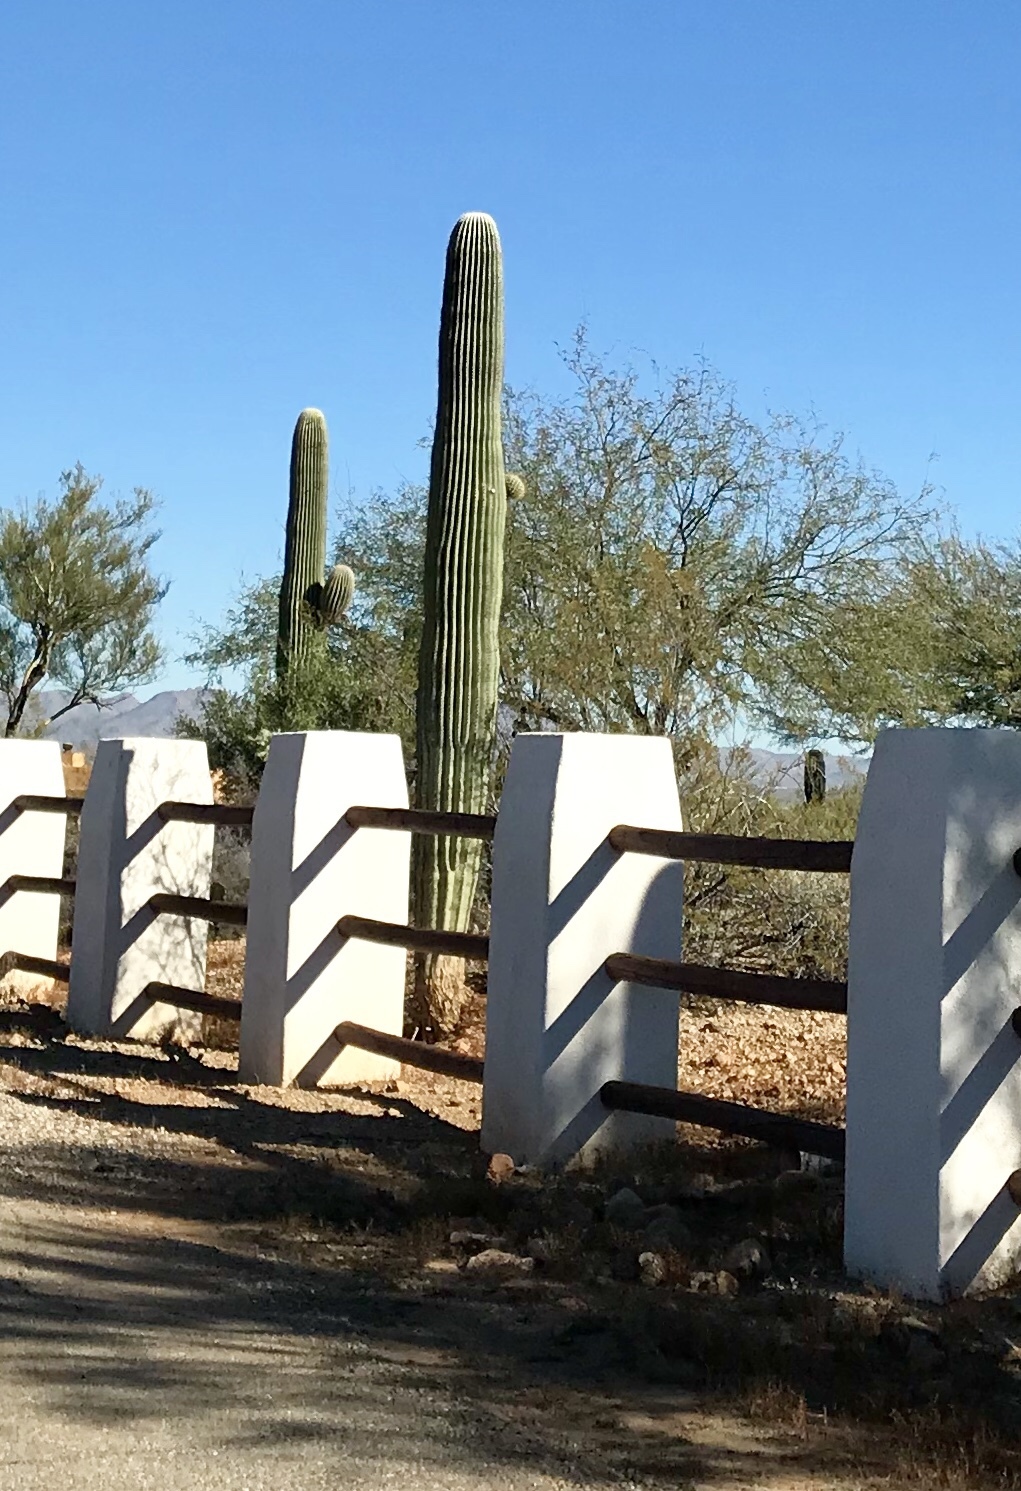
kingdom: Plantae
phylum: Tracheophyta
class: Magnoliopsida
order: Caryophyllales
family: Cactaceae
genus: Carnegiea
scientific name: Carnegiea gigantea
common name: Saguaro
